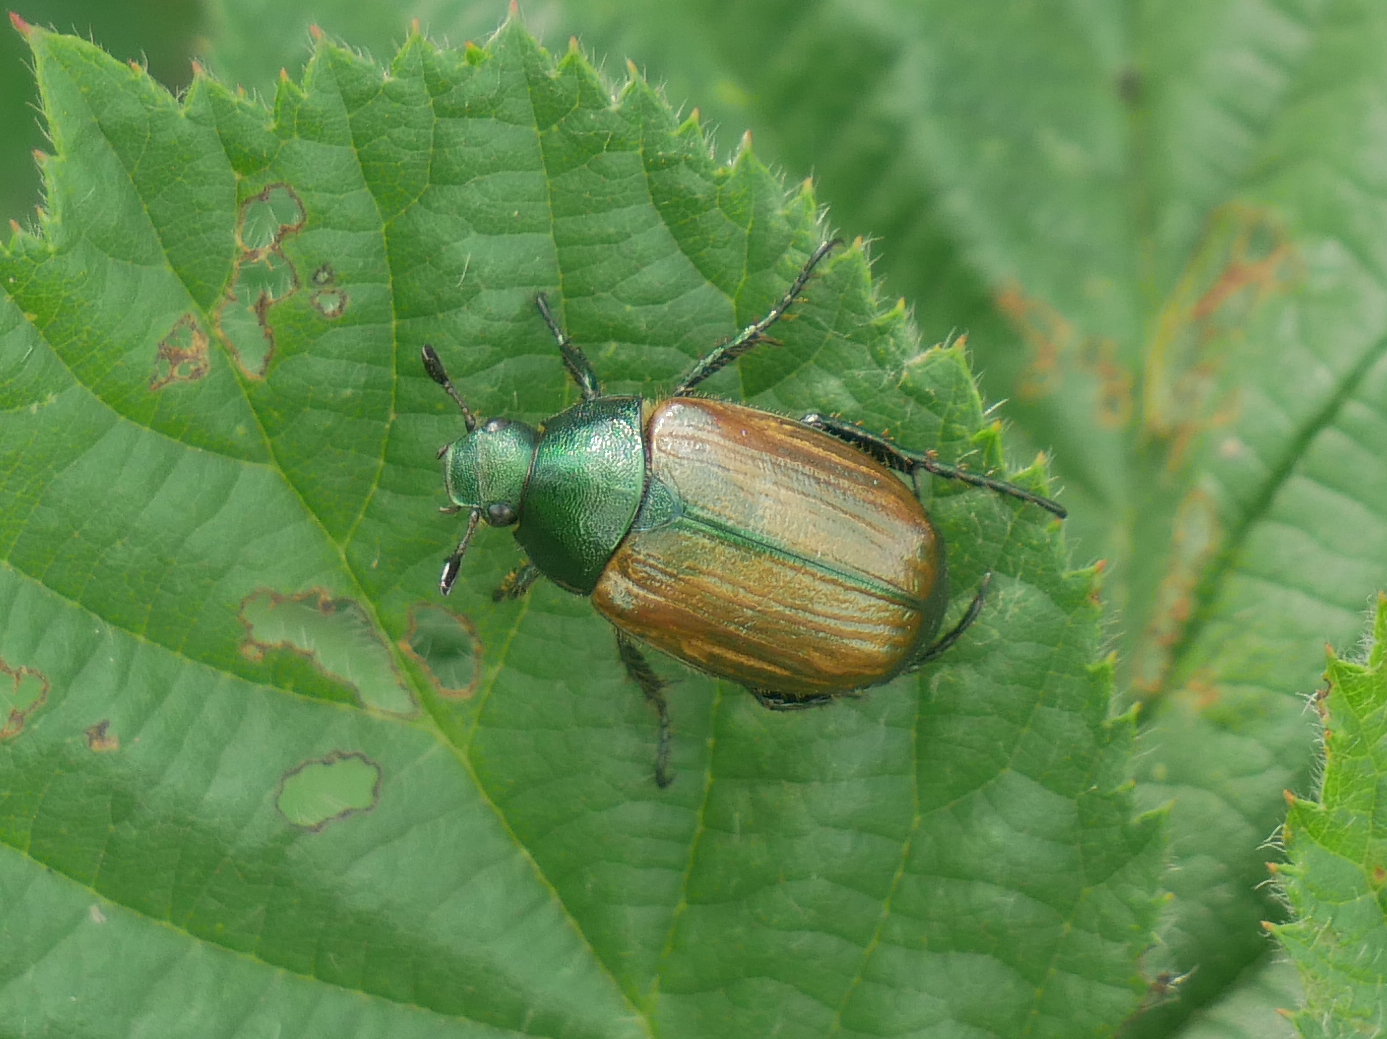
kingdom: Animalia
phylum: Arthropoda
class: Insecta
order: Coleoptera
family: Scarabaeidae
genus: Anomala
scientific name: Anomala dubia
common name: Dune chafer
